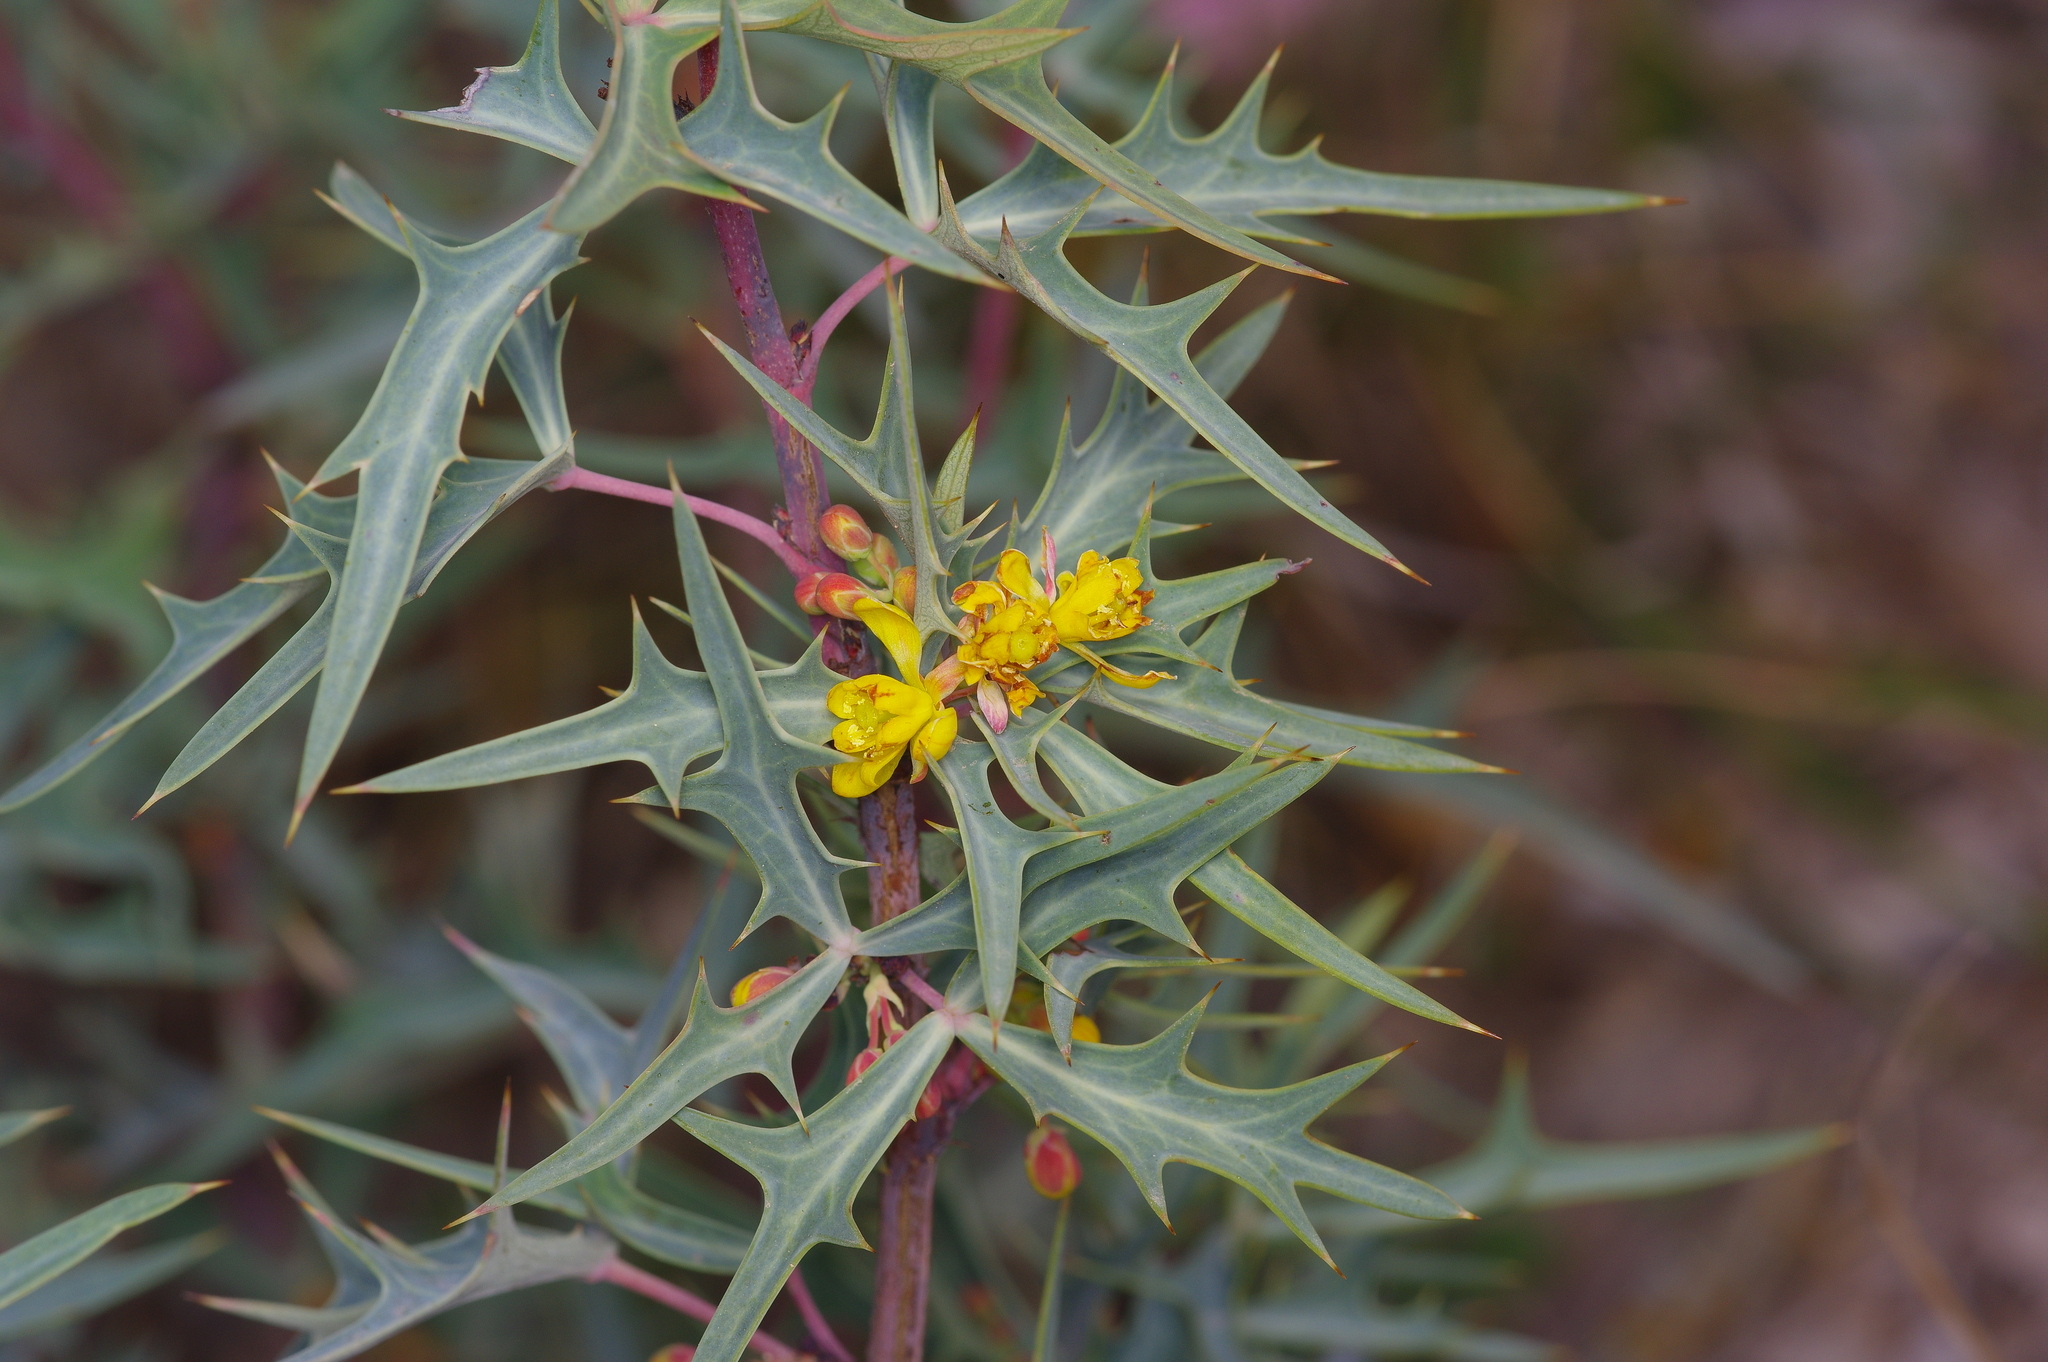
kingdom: Plantae
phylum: Tracheophyta
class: Magnoliopsida
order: Ranunculales
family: Berberidaceae
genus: Alloberberis
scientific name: Alloberberis trifoliolata
